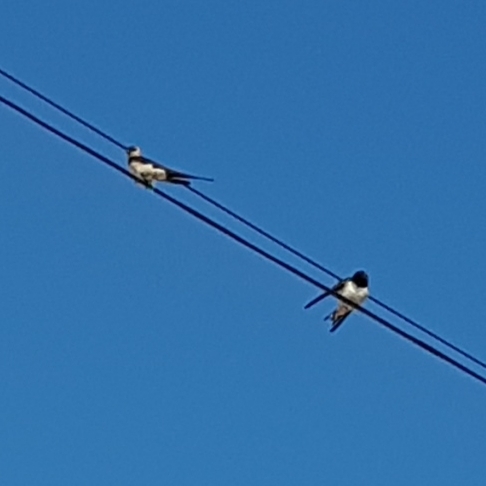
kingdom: Animalia
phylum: Chordata
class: Aves
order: Passeriformes
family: Hirundinidae
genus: Cecropis
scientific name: Cecropis daurica
